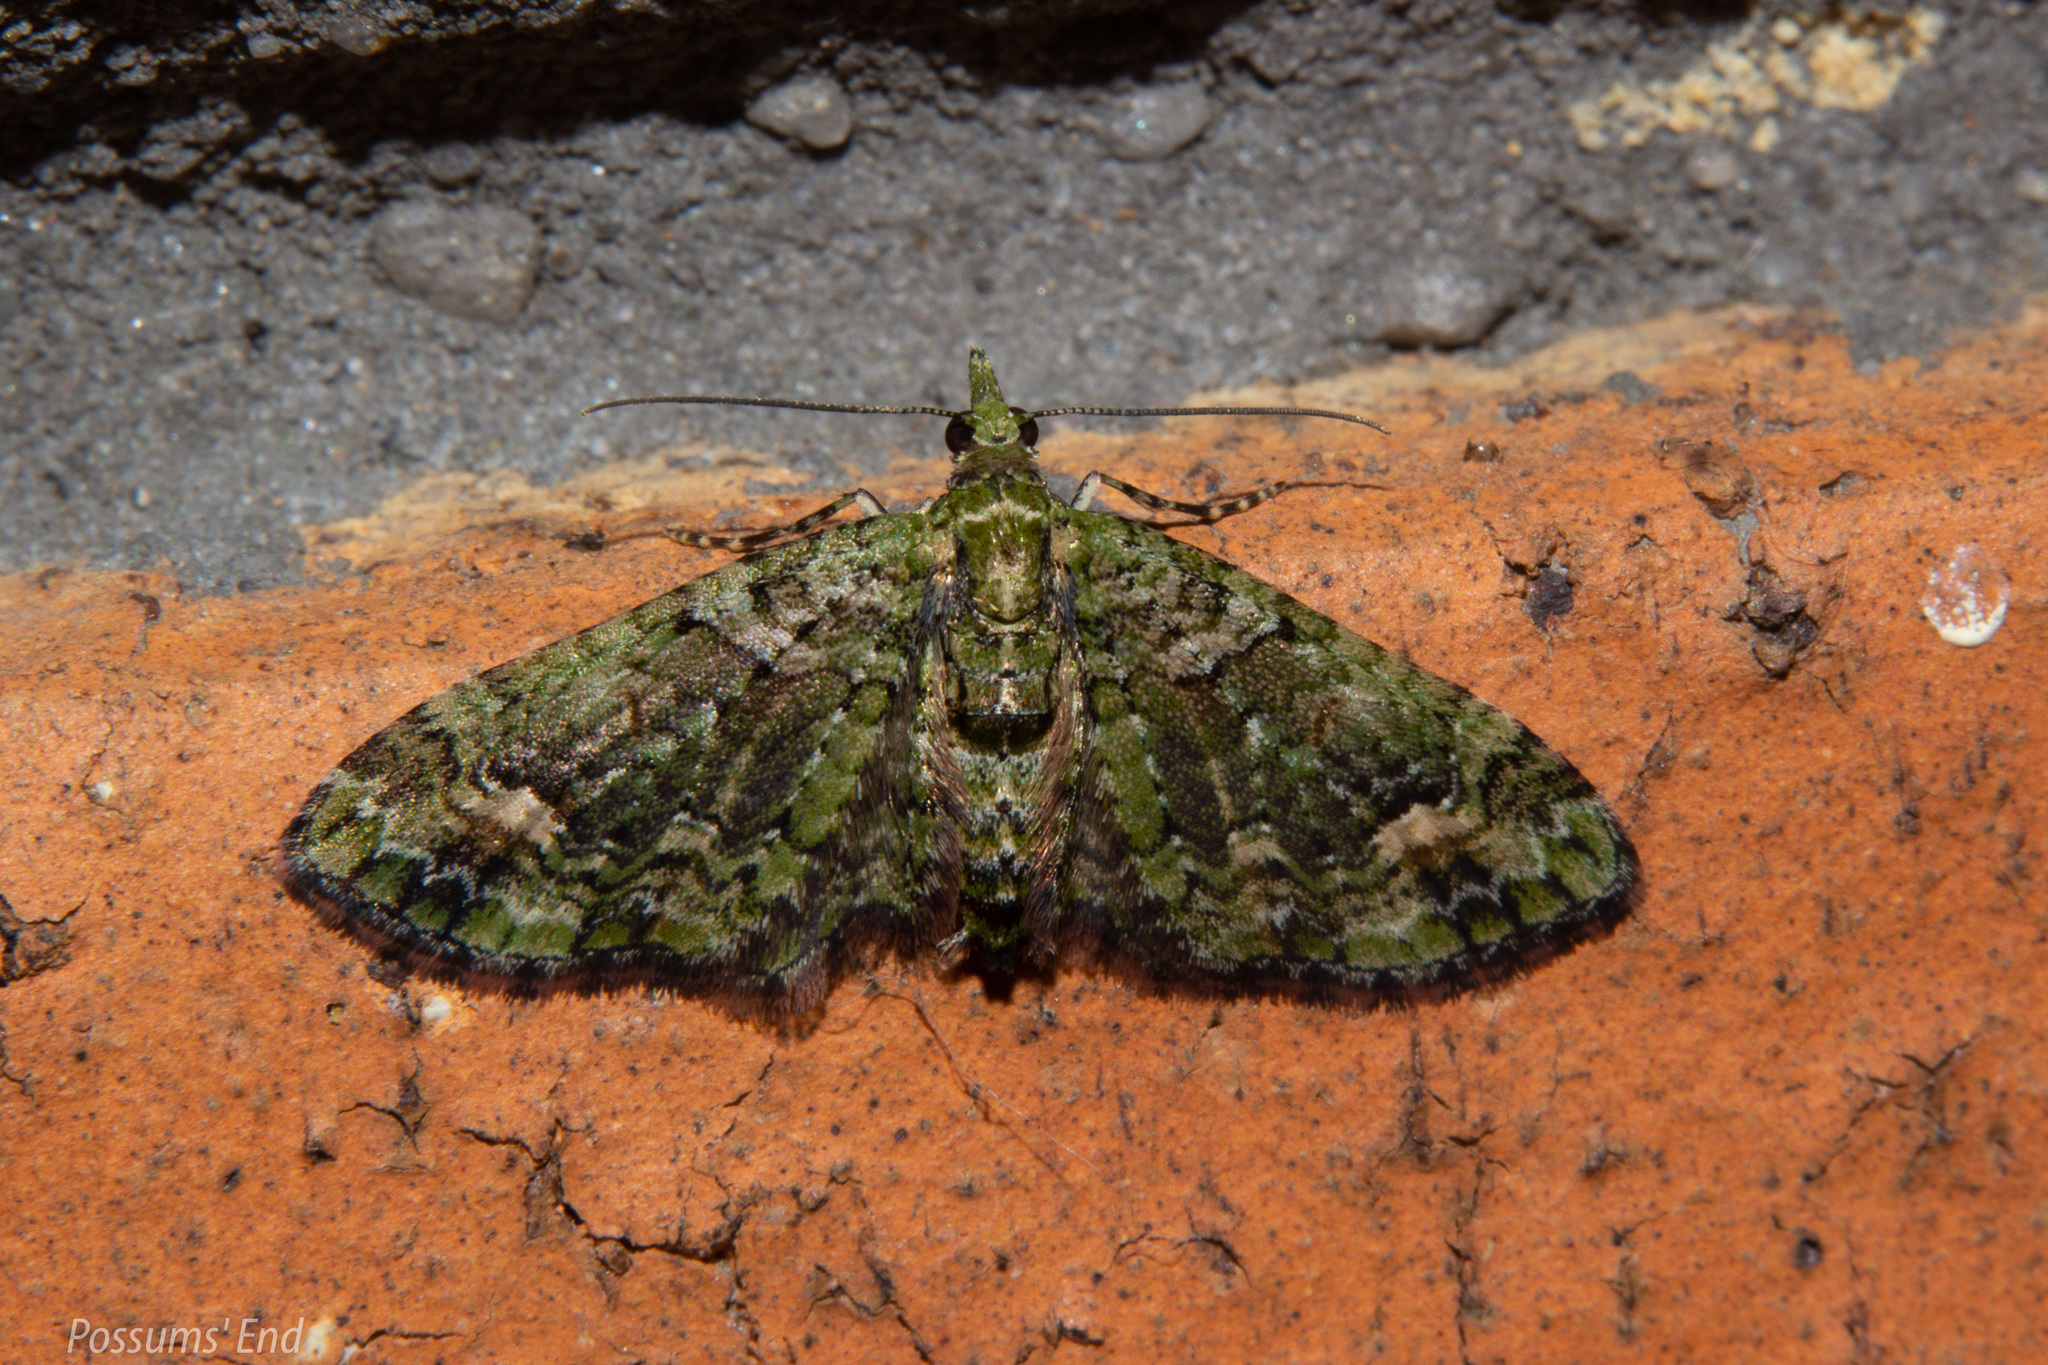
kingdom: Animalia
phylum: Arthropoda
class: Insecta
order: Lepidoptera
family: Geometridae
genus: Idaea
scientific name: Idaea mutanda
